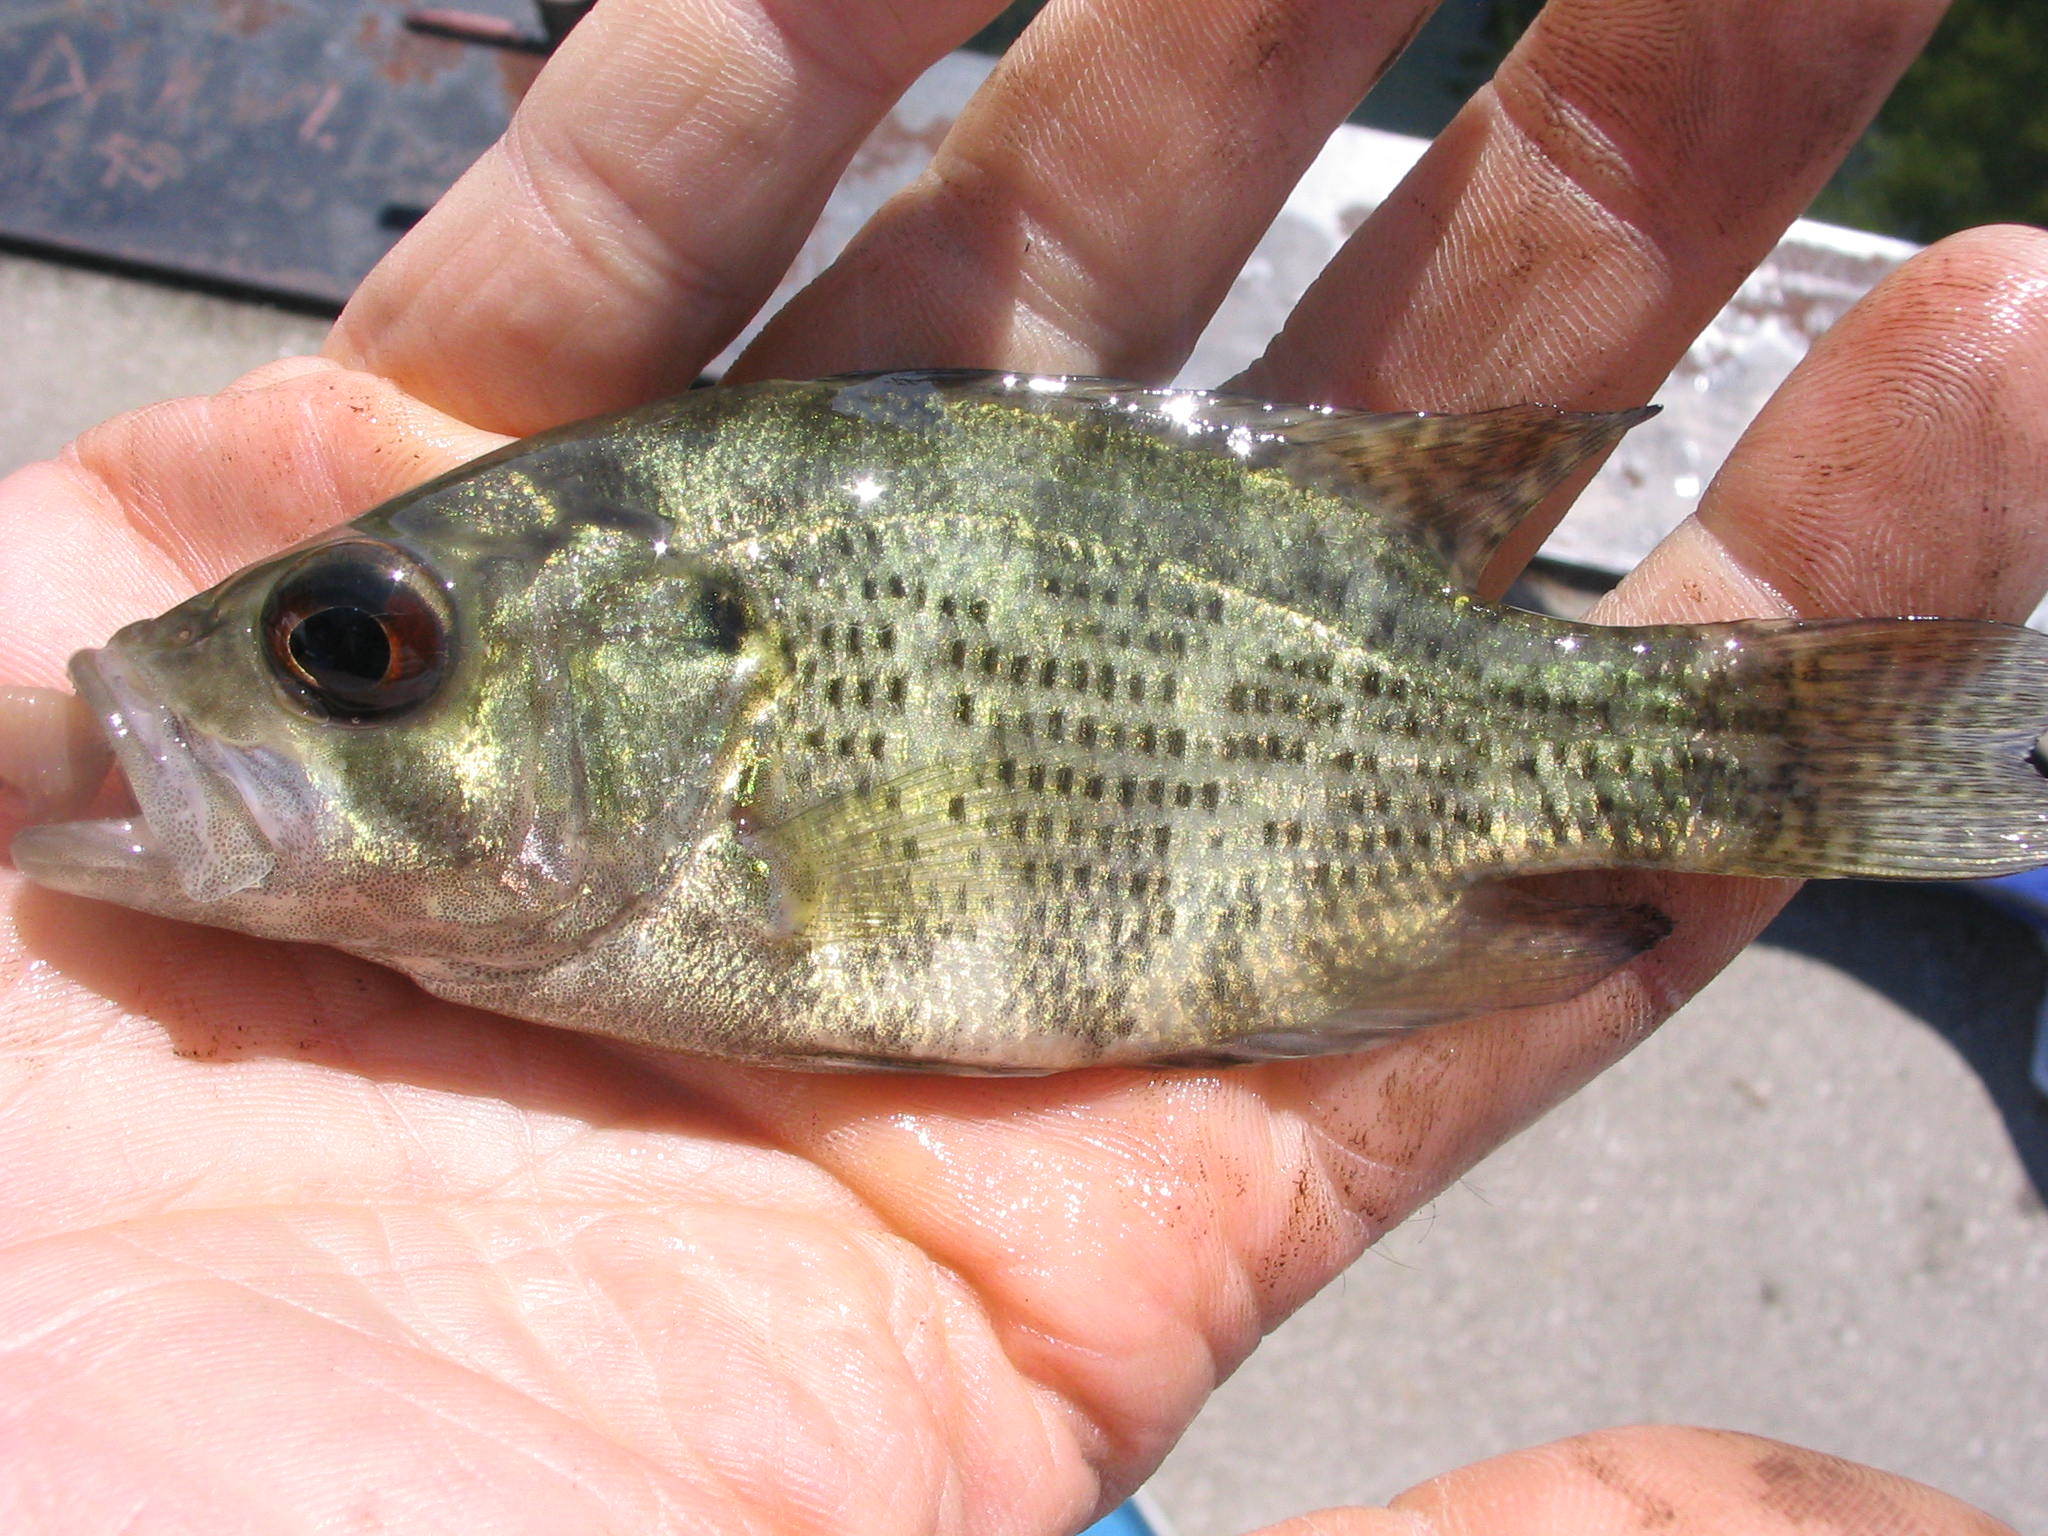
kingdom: Animalia
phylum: Chordata
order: Perciformes
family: Centrarchidae
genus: Ambloplites
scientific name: Ambloplites rupestris
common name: Rock bass
